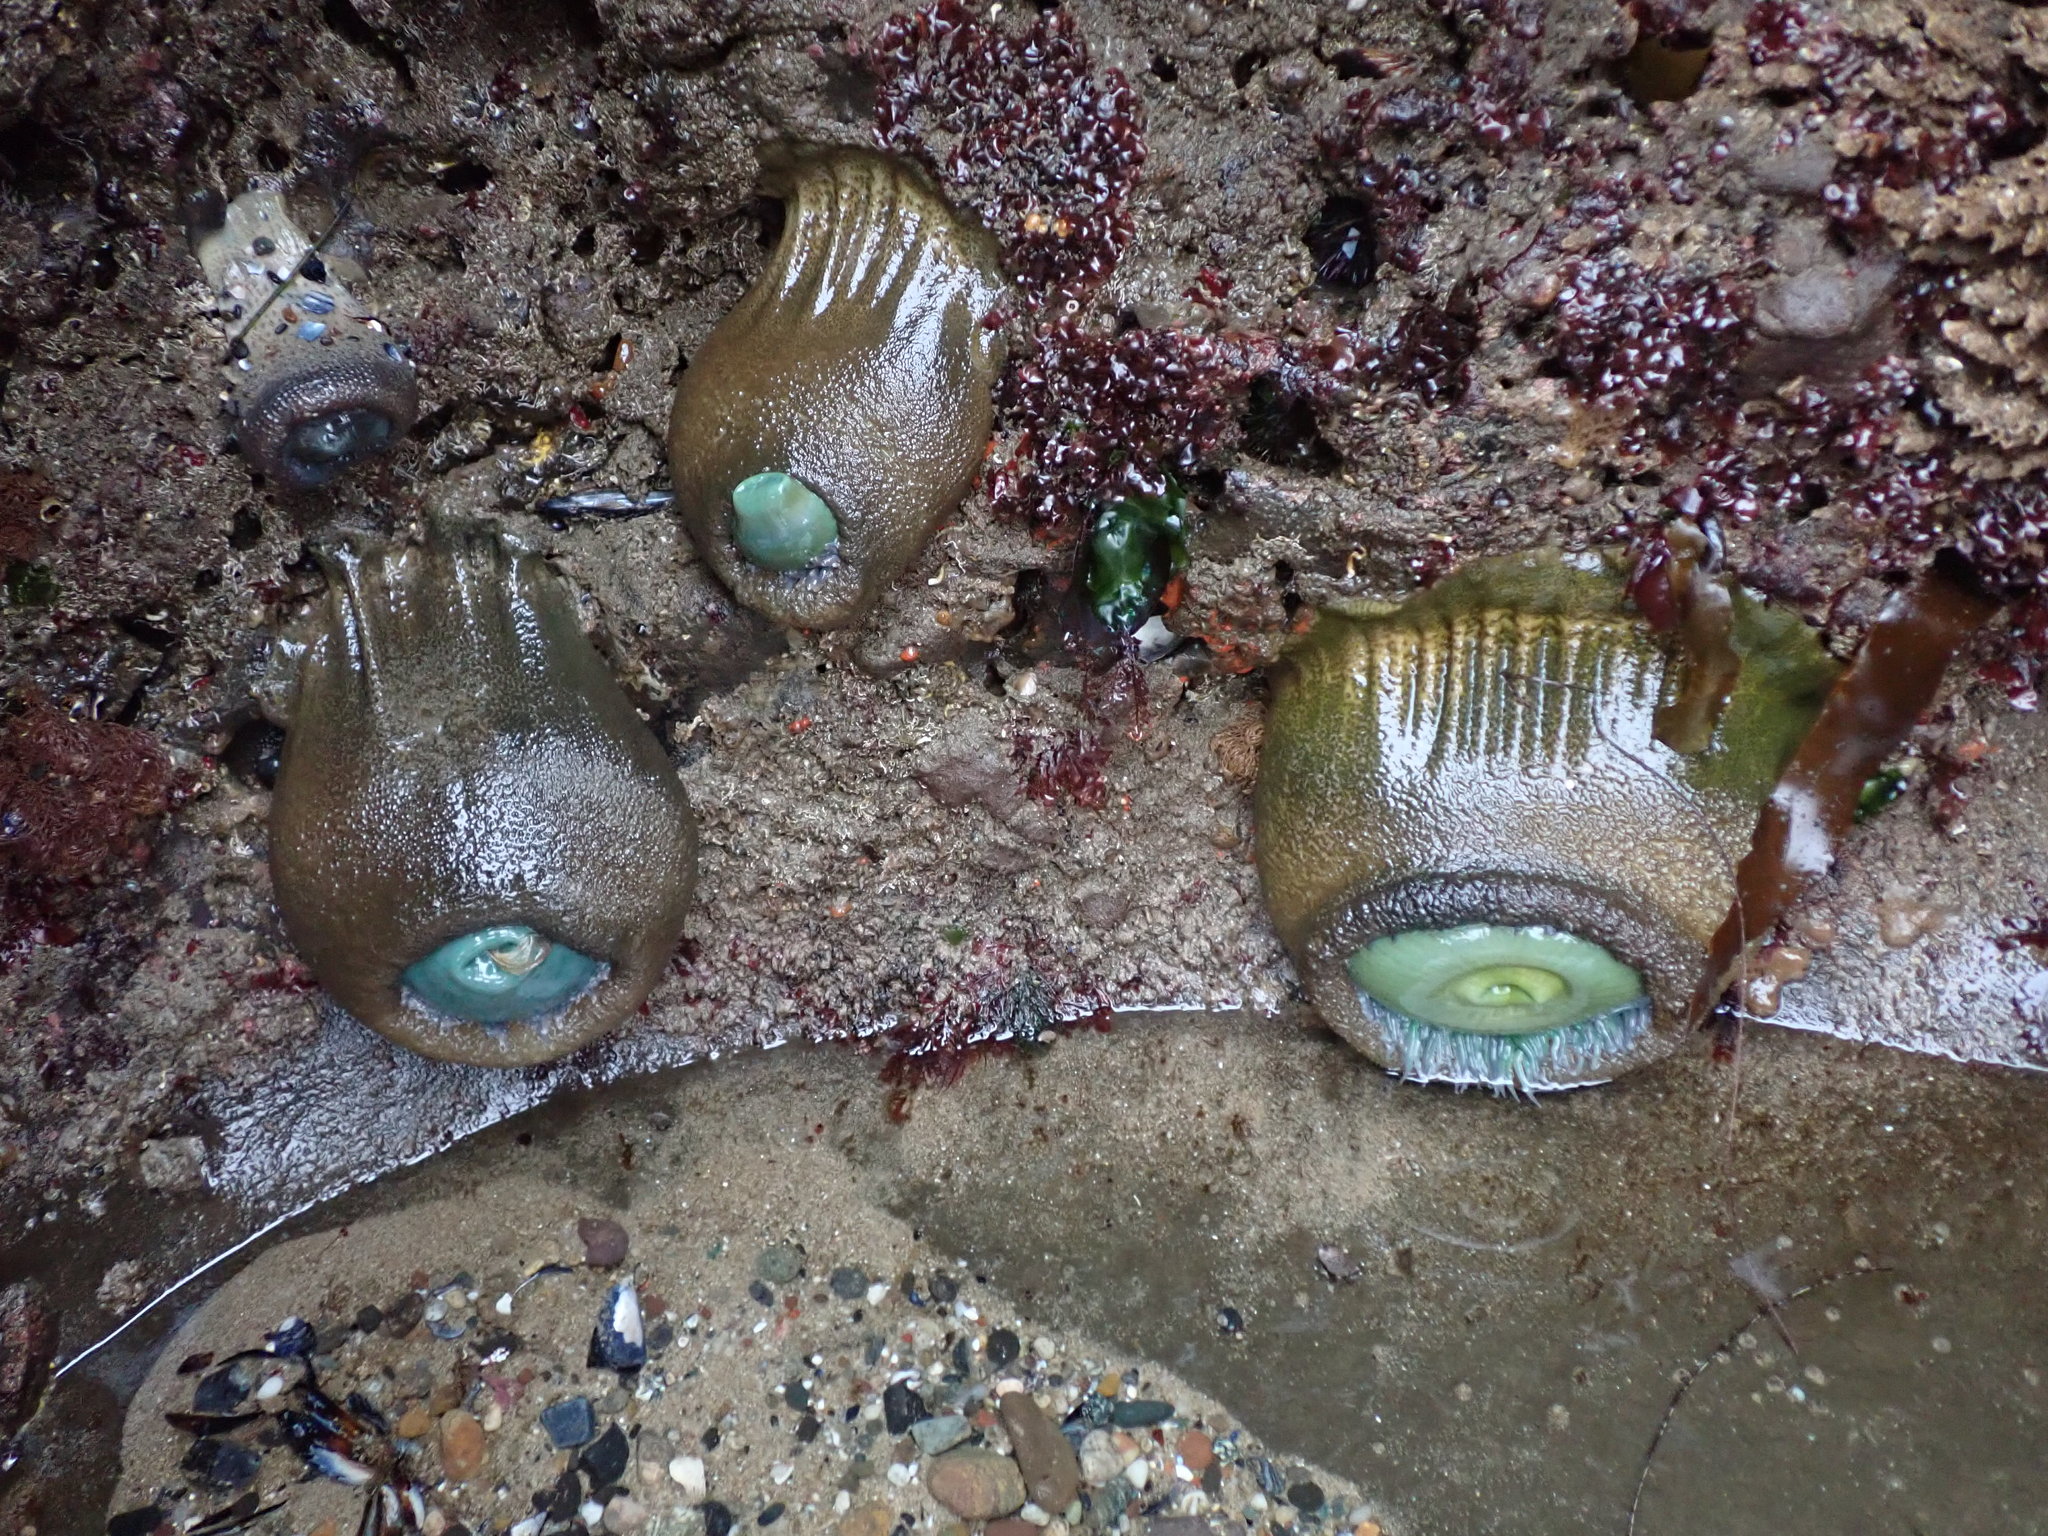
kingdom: Animalia
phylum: Cnidaria
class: Anthozoa
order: Actiniaria
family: Actiniidae
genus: Anthopleura
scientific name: Anthopleura xanthogrammica
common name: Giant green anemone
